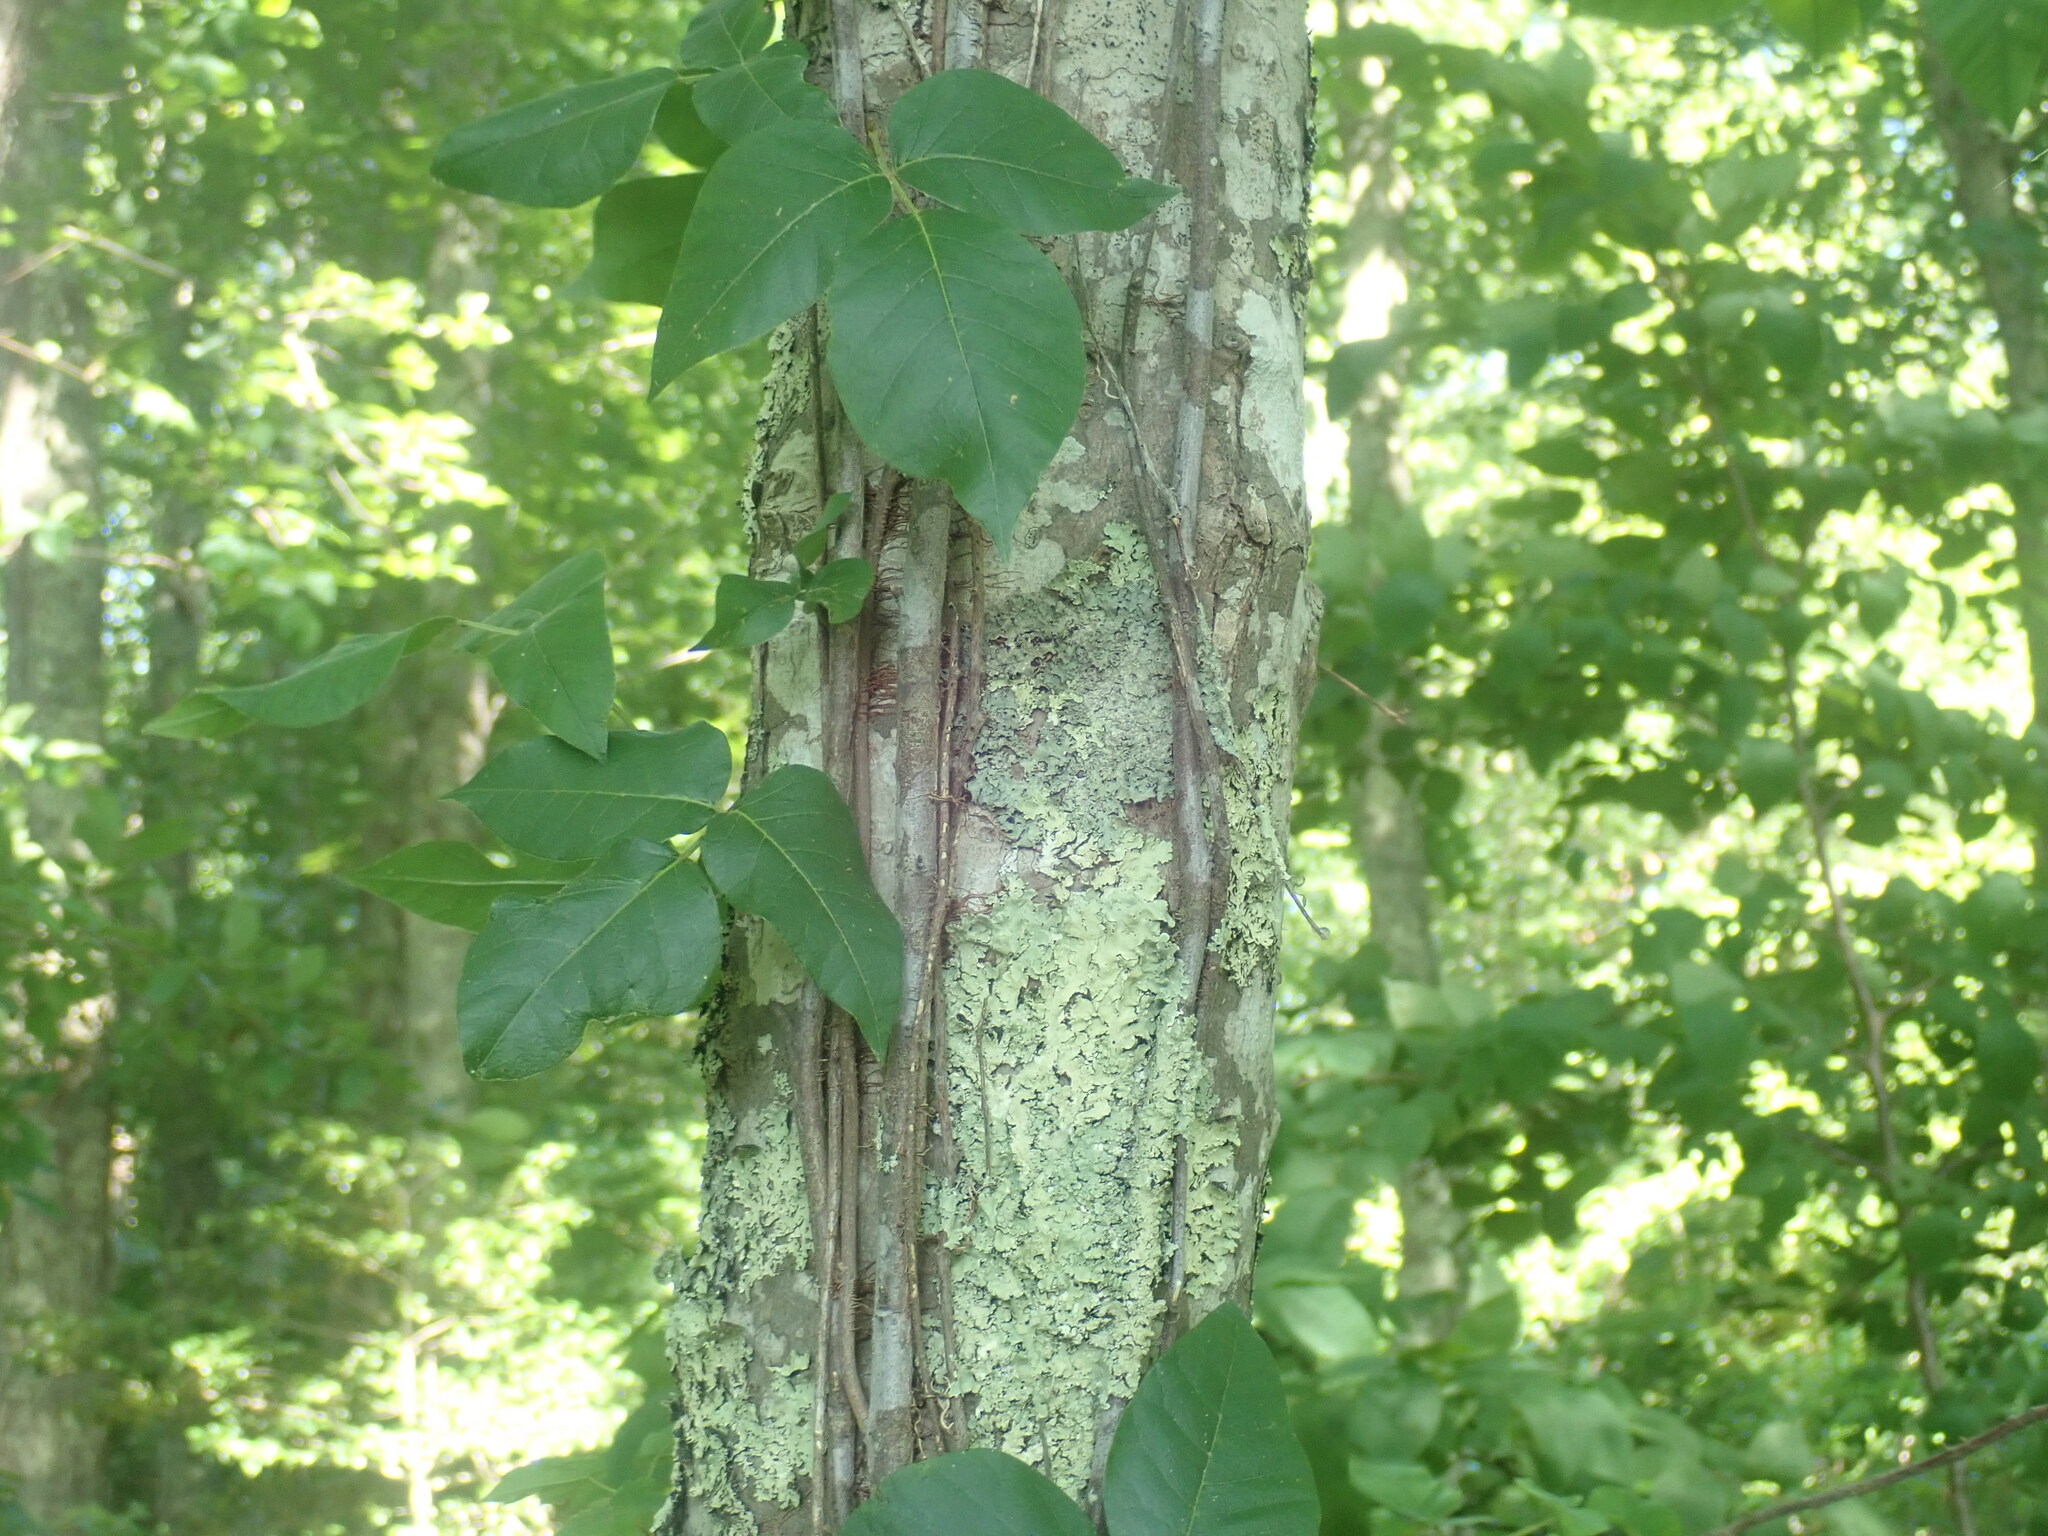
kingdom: Plantae
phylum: Tracheophyta
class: Magnoliopsida
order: Sapindales
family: Anacardiaceae
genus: Toxicodendron
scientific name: Toxicodendron radicans
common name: Poison ivy
